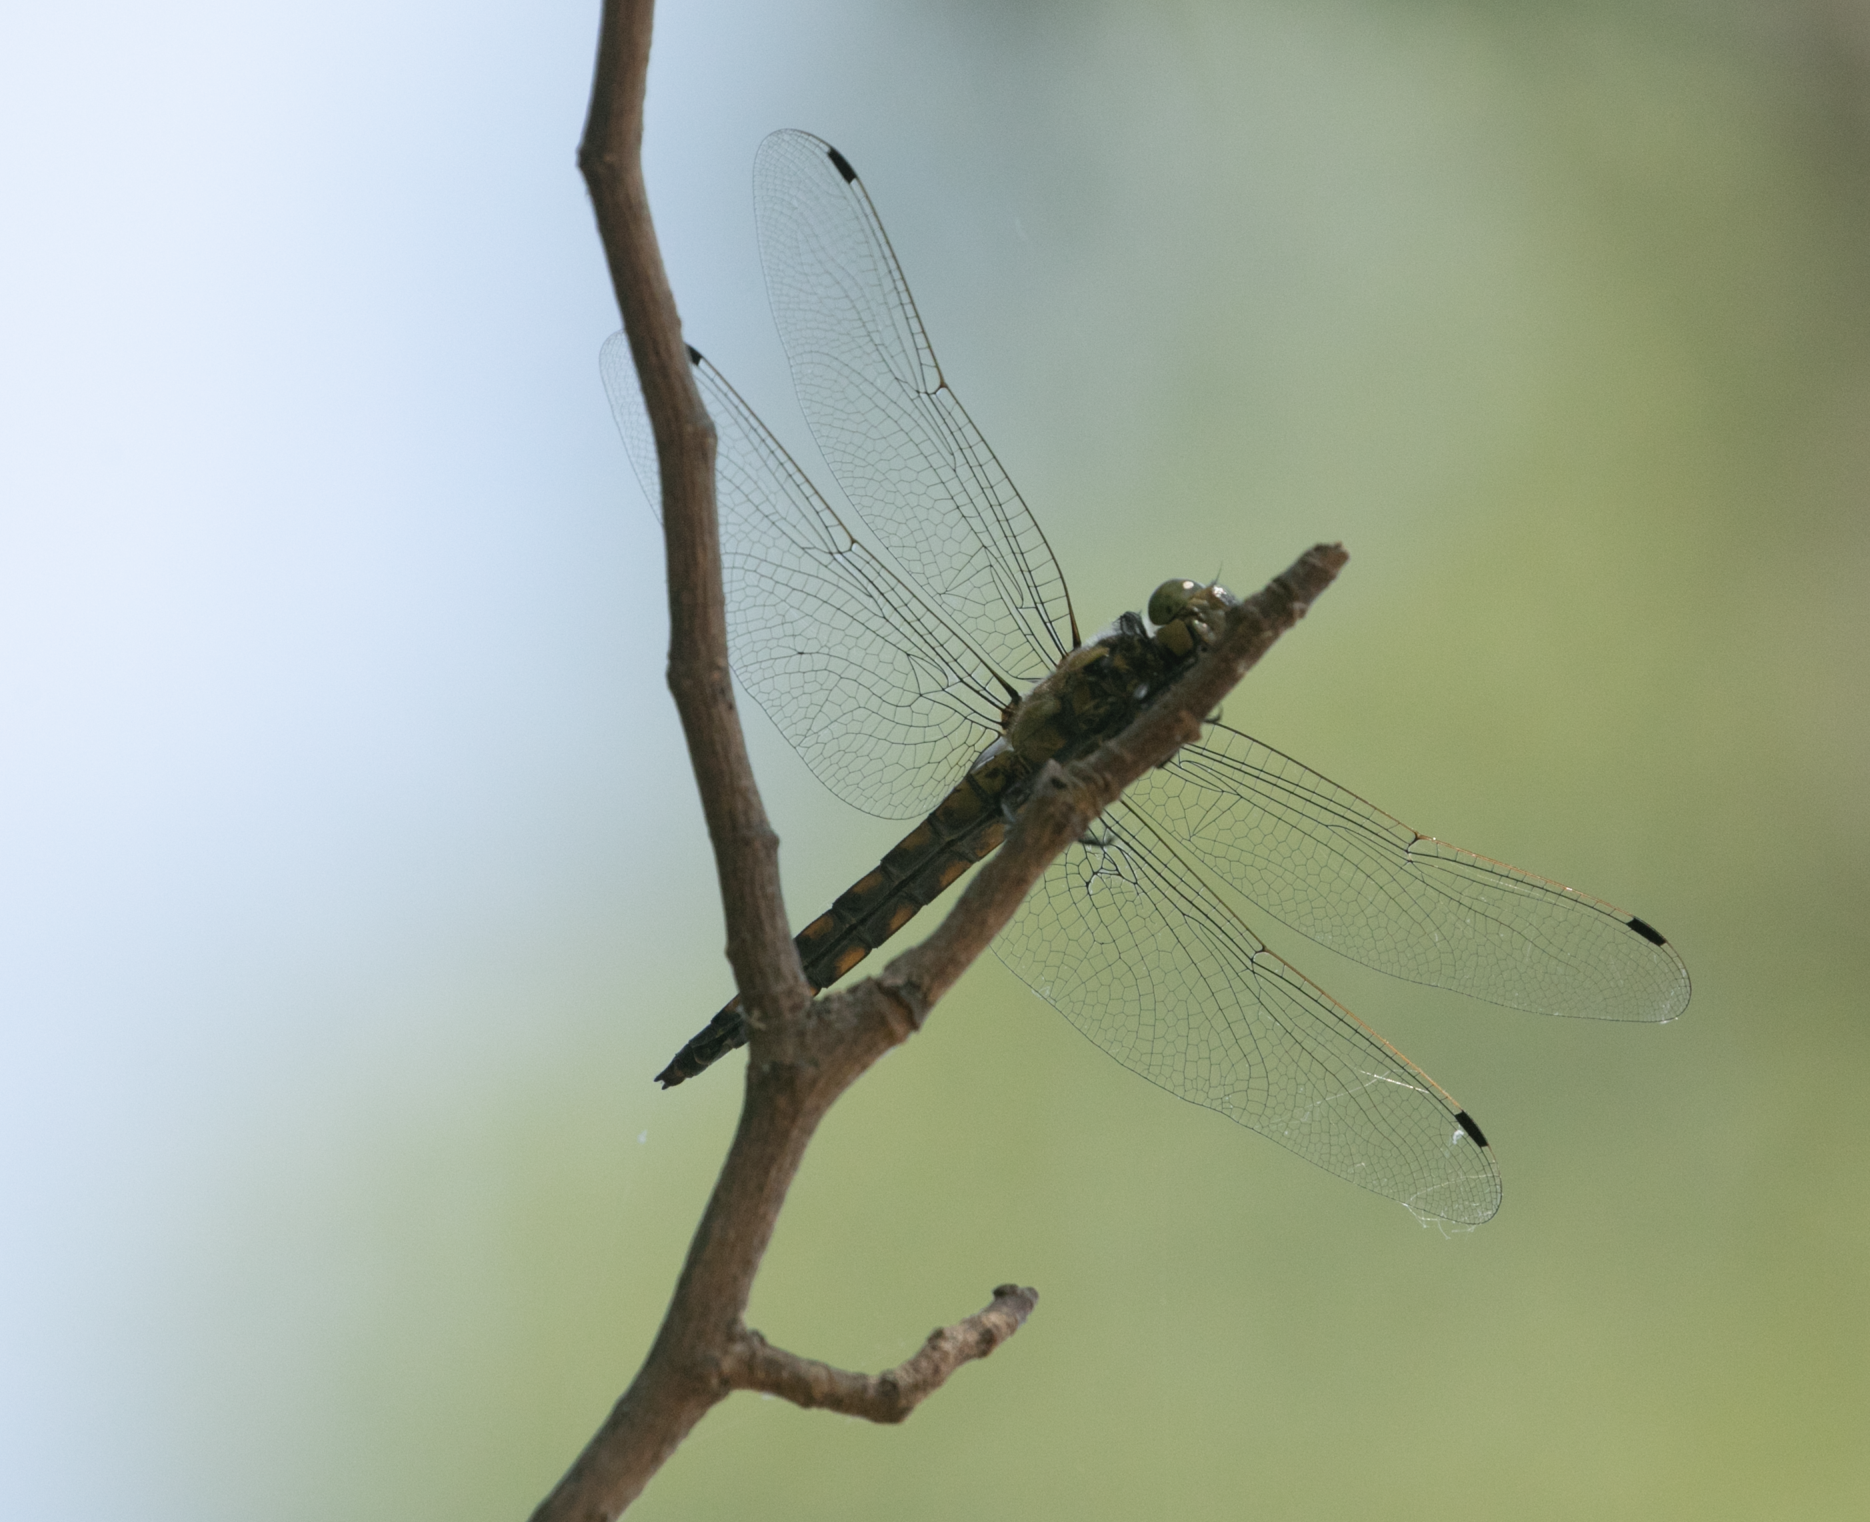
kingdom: Animalia
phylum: Arthropoda
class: Insecta
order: Odonata
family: Libellulidae
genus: Orthetrum
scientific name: Orthetrum cancellatum
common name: Black-tailed skimmer
